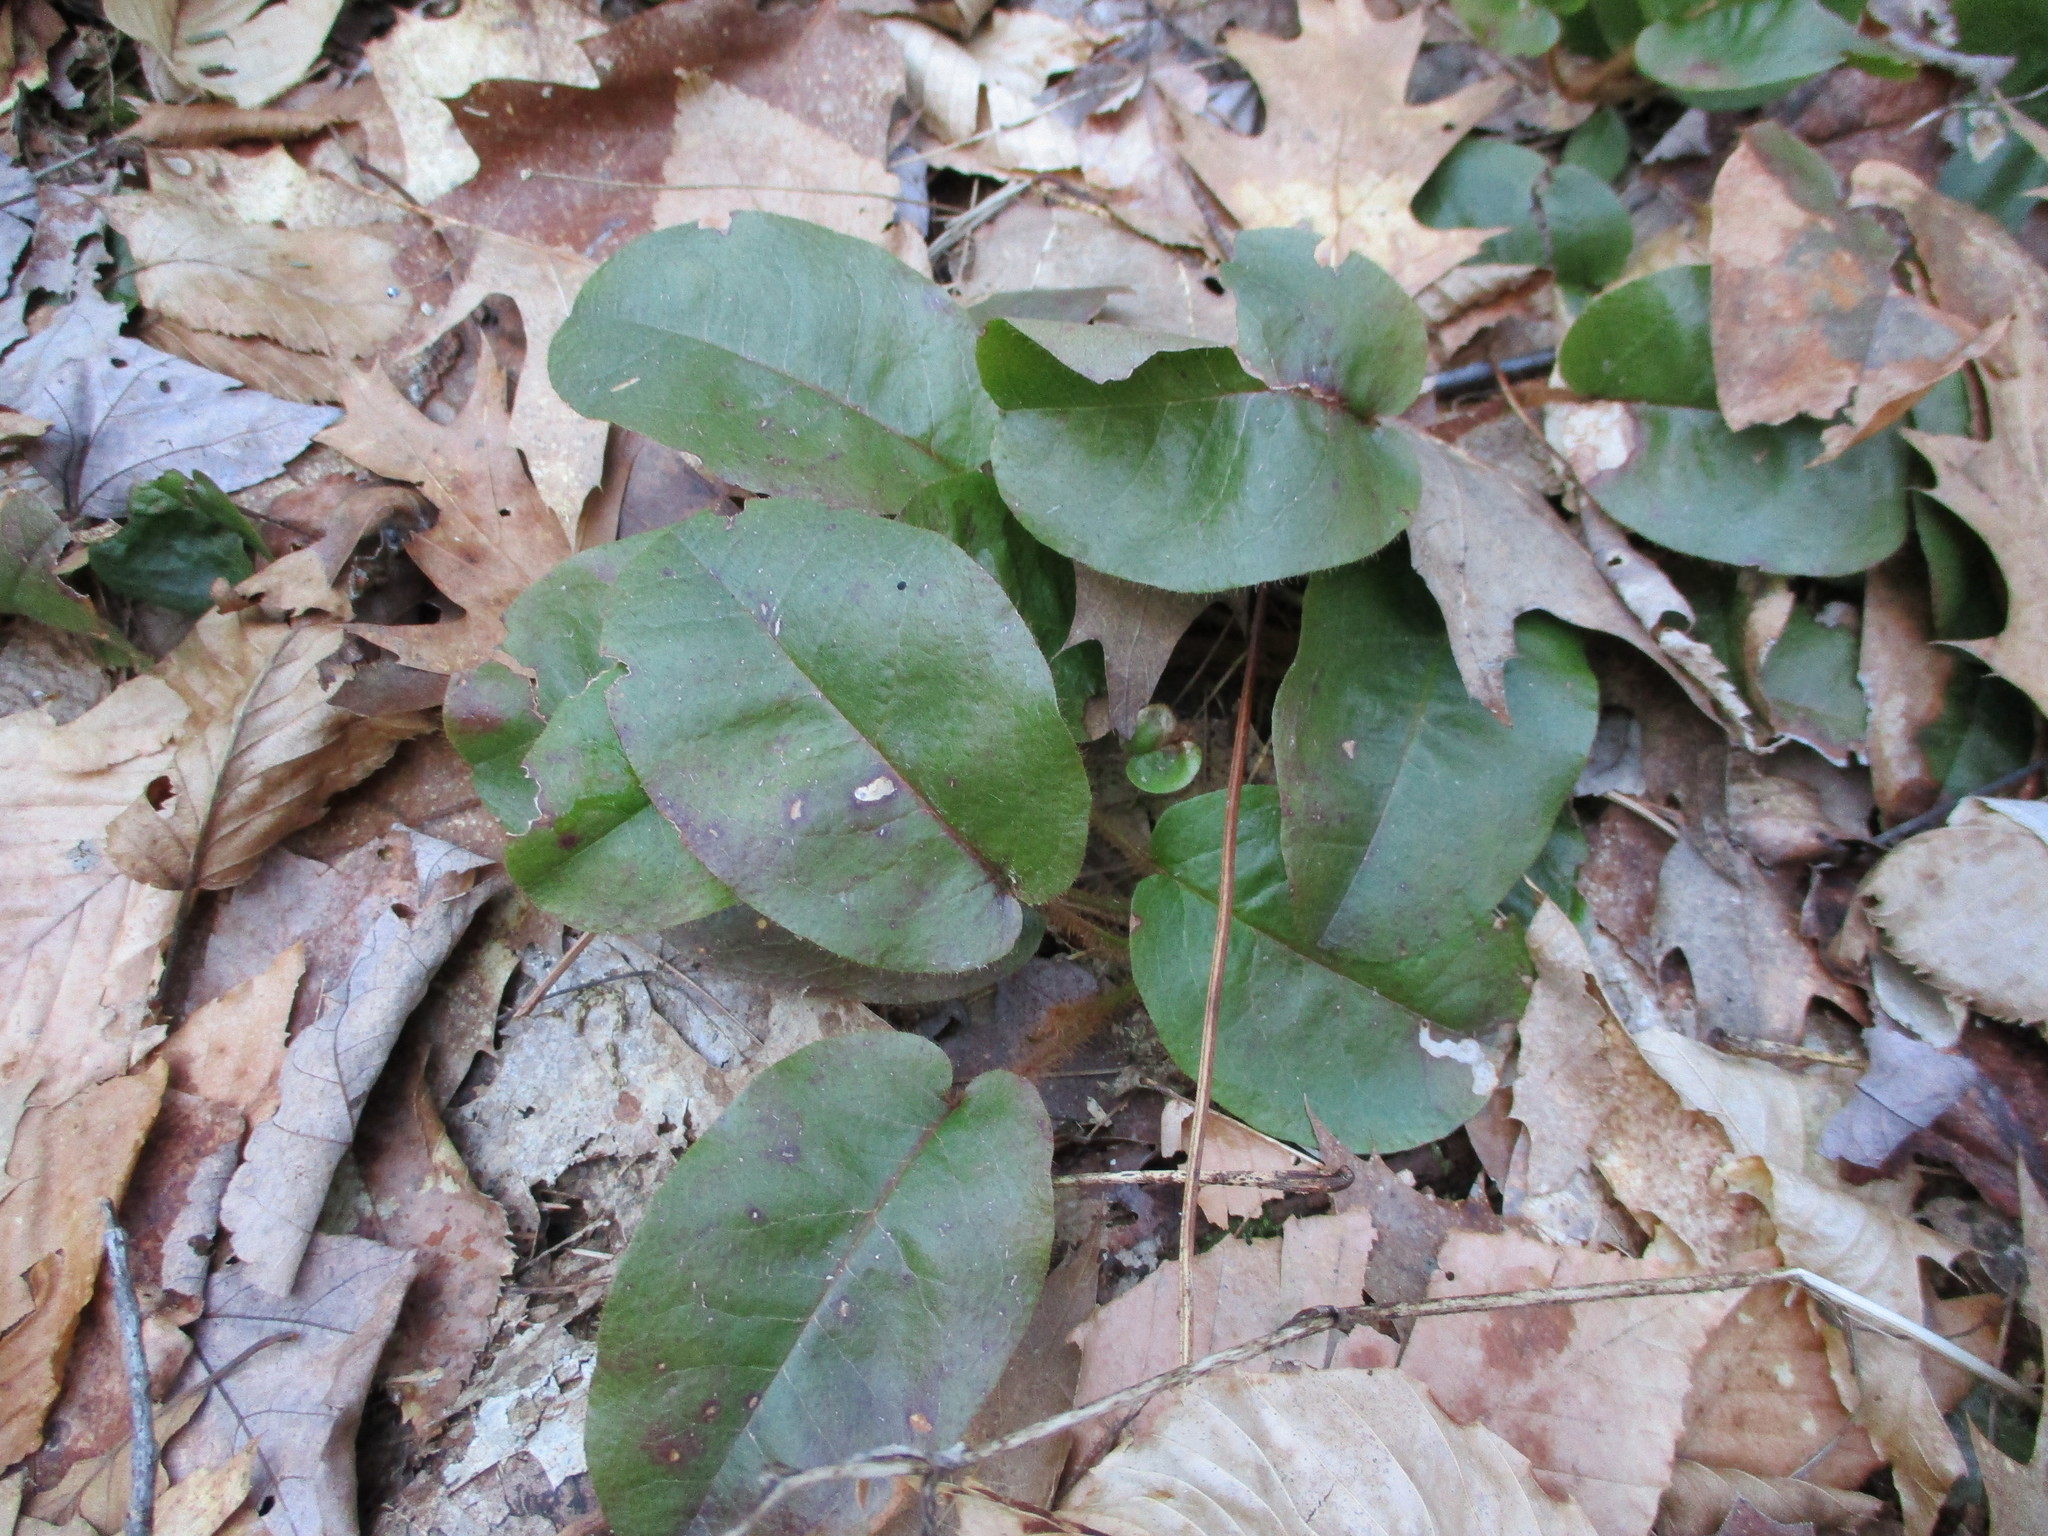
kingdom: Plantae
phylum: Tracheophyta
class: Magnoliopsida
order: Ericales
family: Ericaceae
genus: Epigaea
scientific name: Epigaea repens
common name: Gravelroot
